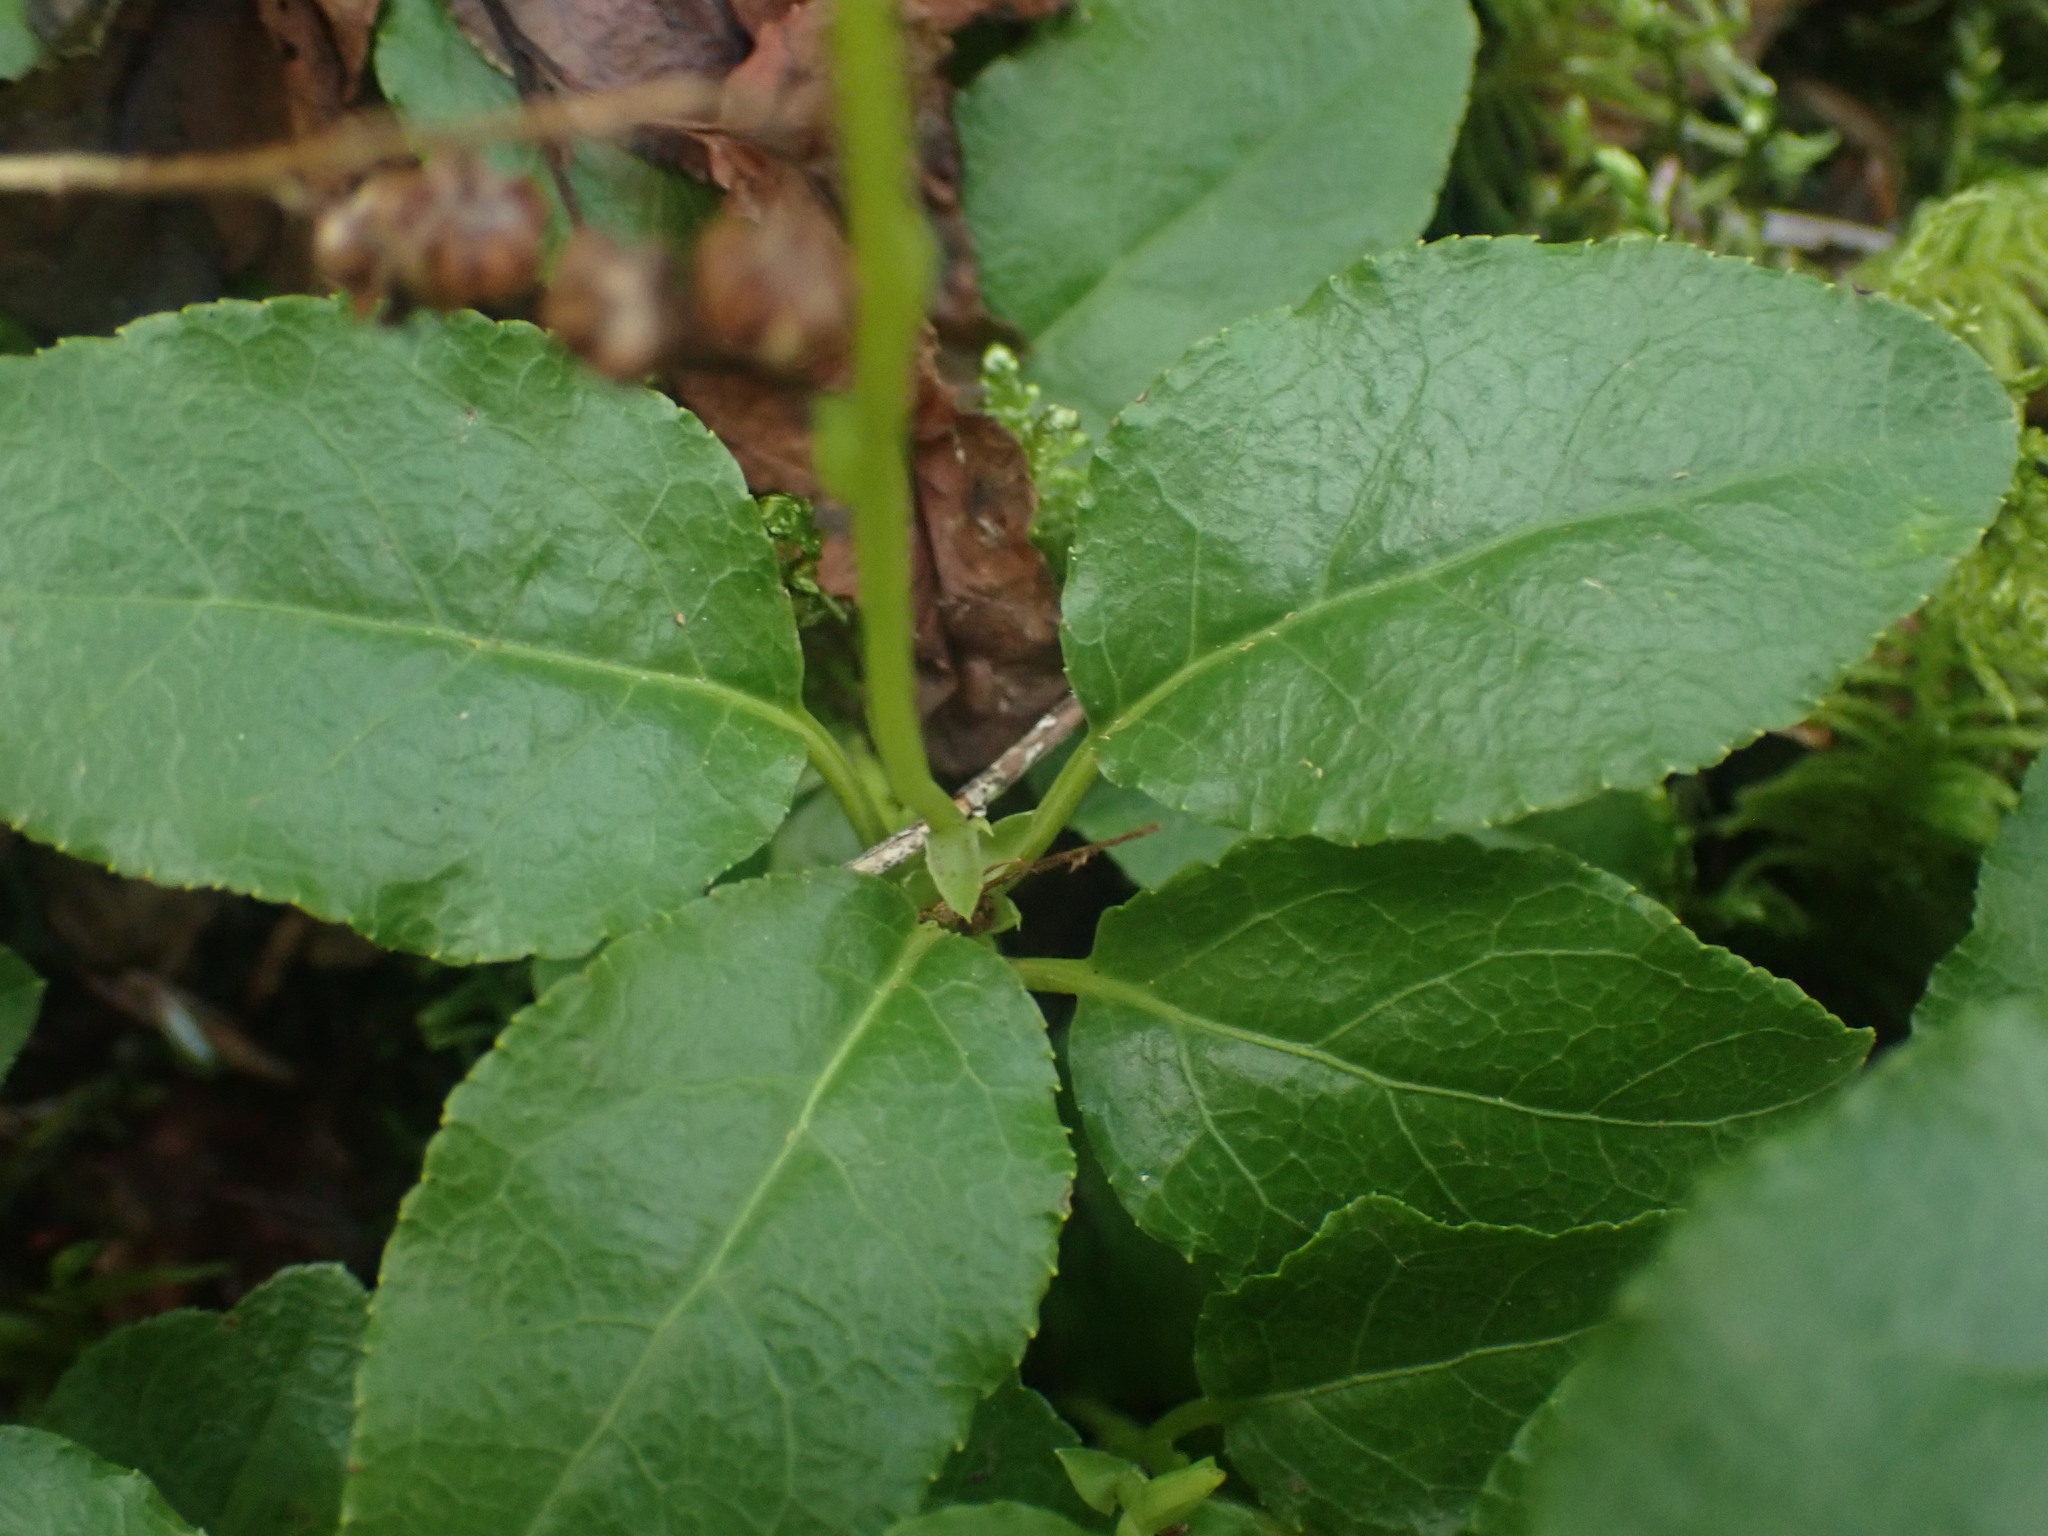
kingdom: Plantae
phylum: Tracheophyta
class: Magnoliopsida
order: Ericales
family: Ericaceae
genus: Orthilia
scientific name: Orthilia secunda
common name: One-sided orthilia
